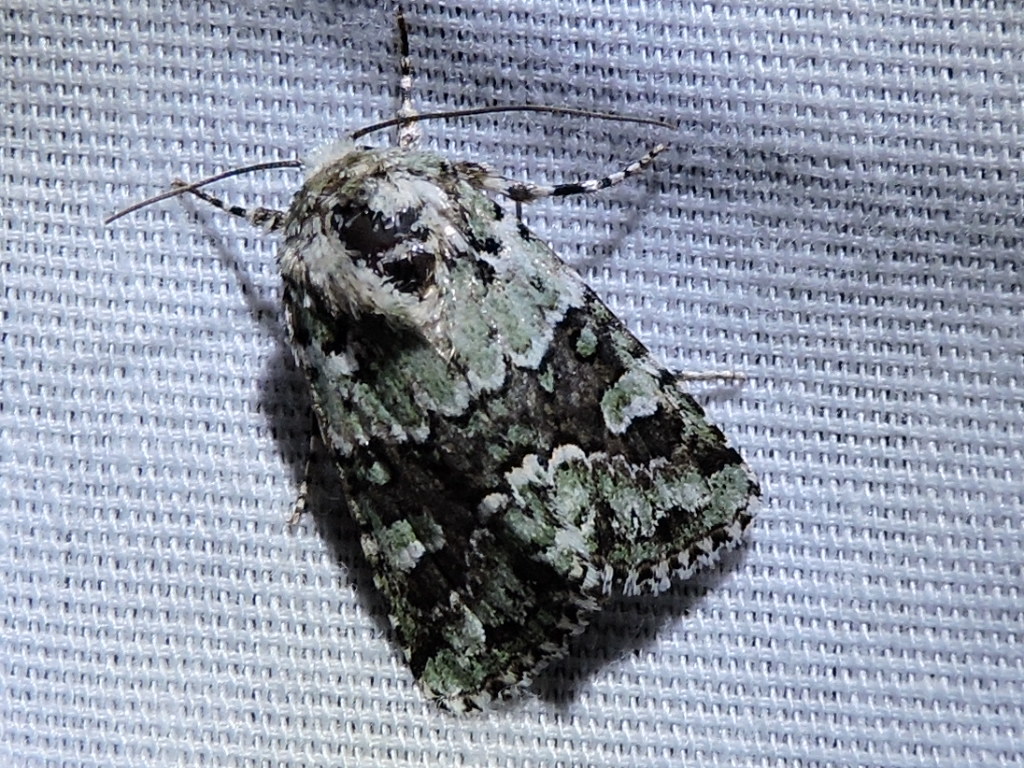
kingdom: Animalia
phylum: Arthropoda
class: Insecta
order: Lepidoptera
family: Noctuidae
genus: Lacinipolia
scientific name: Lacinipolia laudabilis
